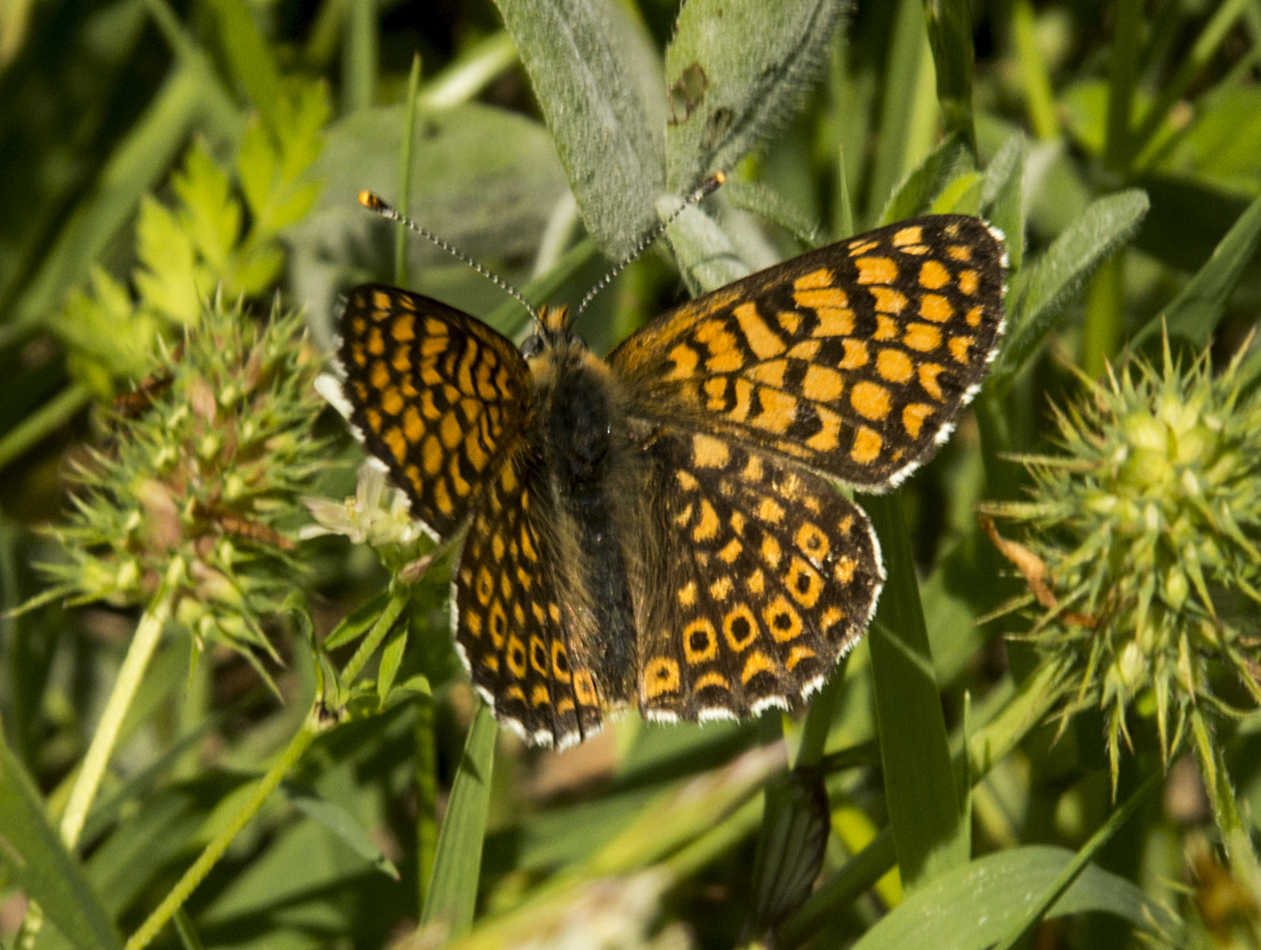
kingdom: Animalia
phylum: Arthropoda
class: Insecta
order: Lepidoptera
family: Nymphalidae
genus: Melitaea
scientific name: Melitaea cinxia
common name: Glanville fritillary
